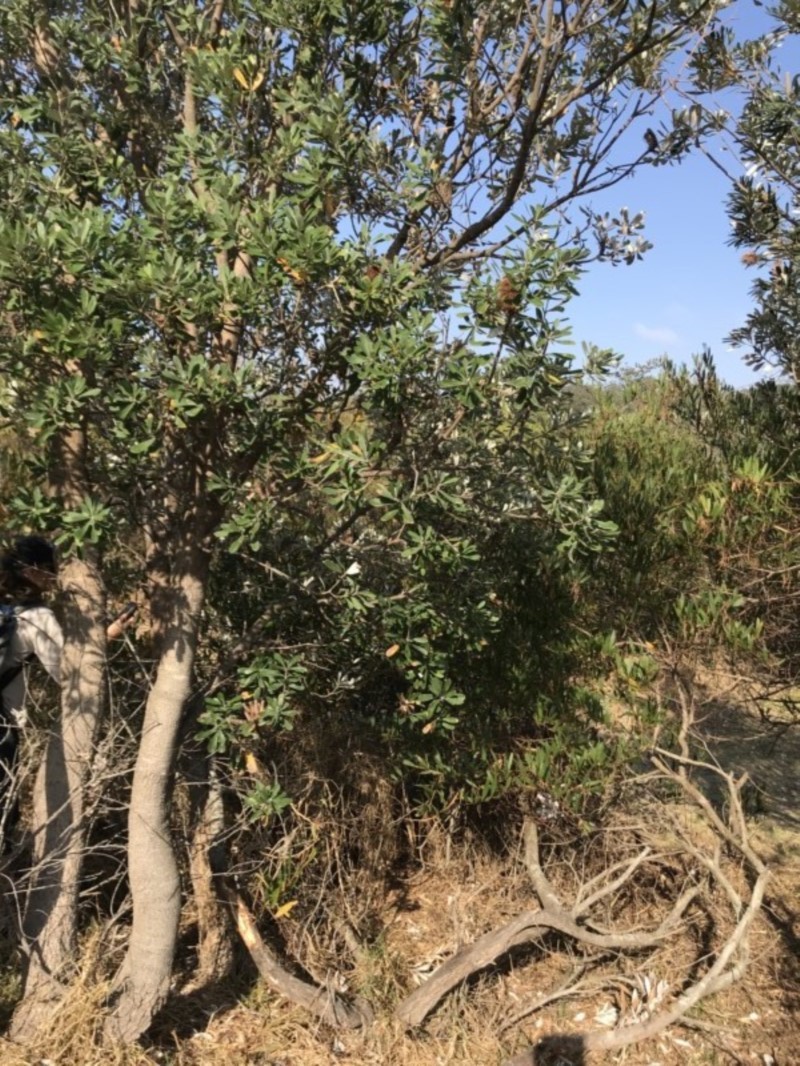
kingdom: Plantae
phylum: Tracheophyta
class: Magnoliopsida
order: Proteales
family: Proteaceae
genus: Banksia
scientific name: Banksia integrifolia
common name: White-honeysuckle
